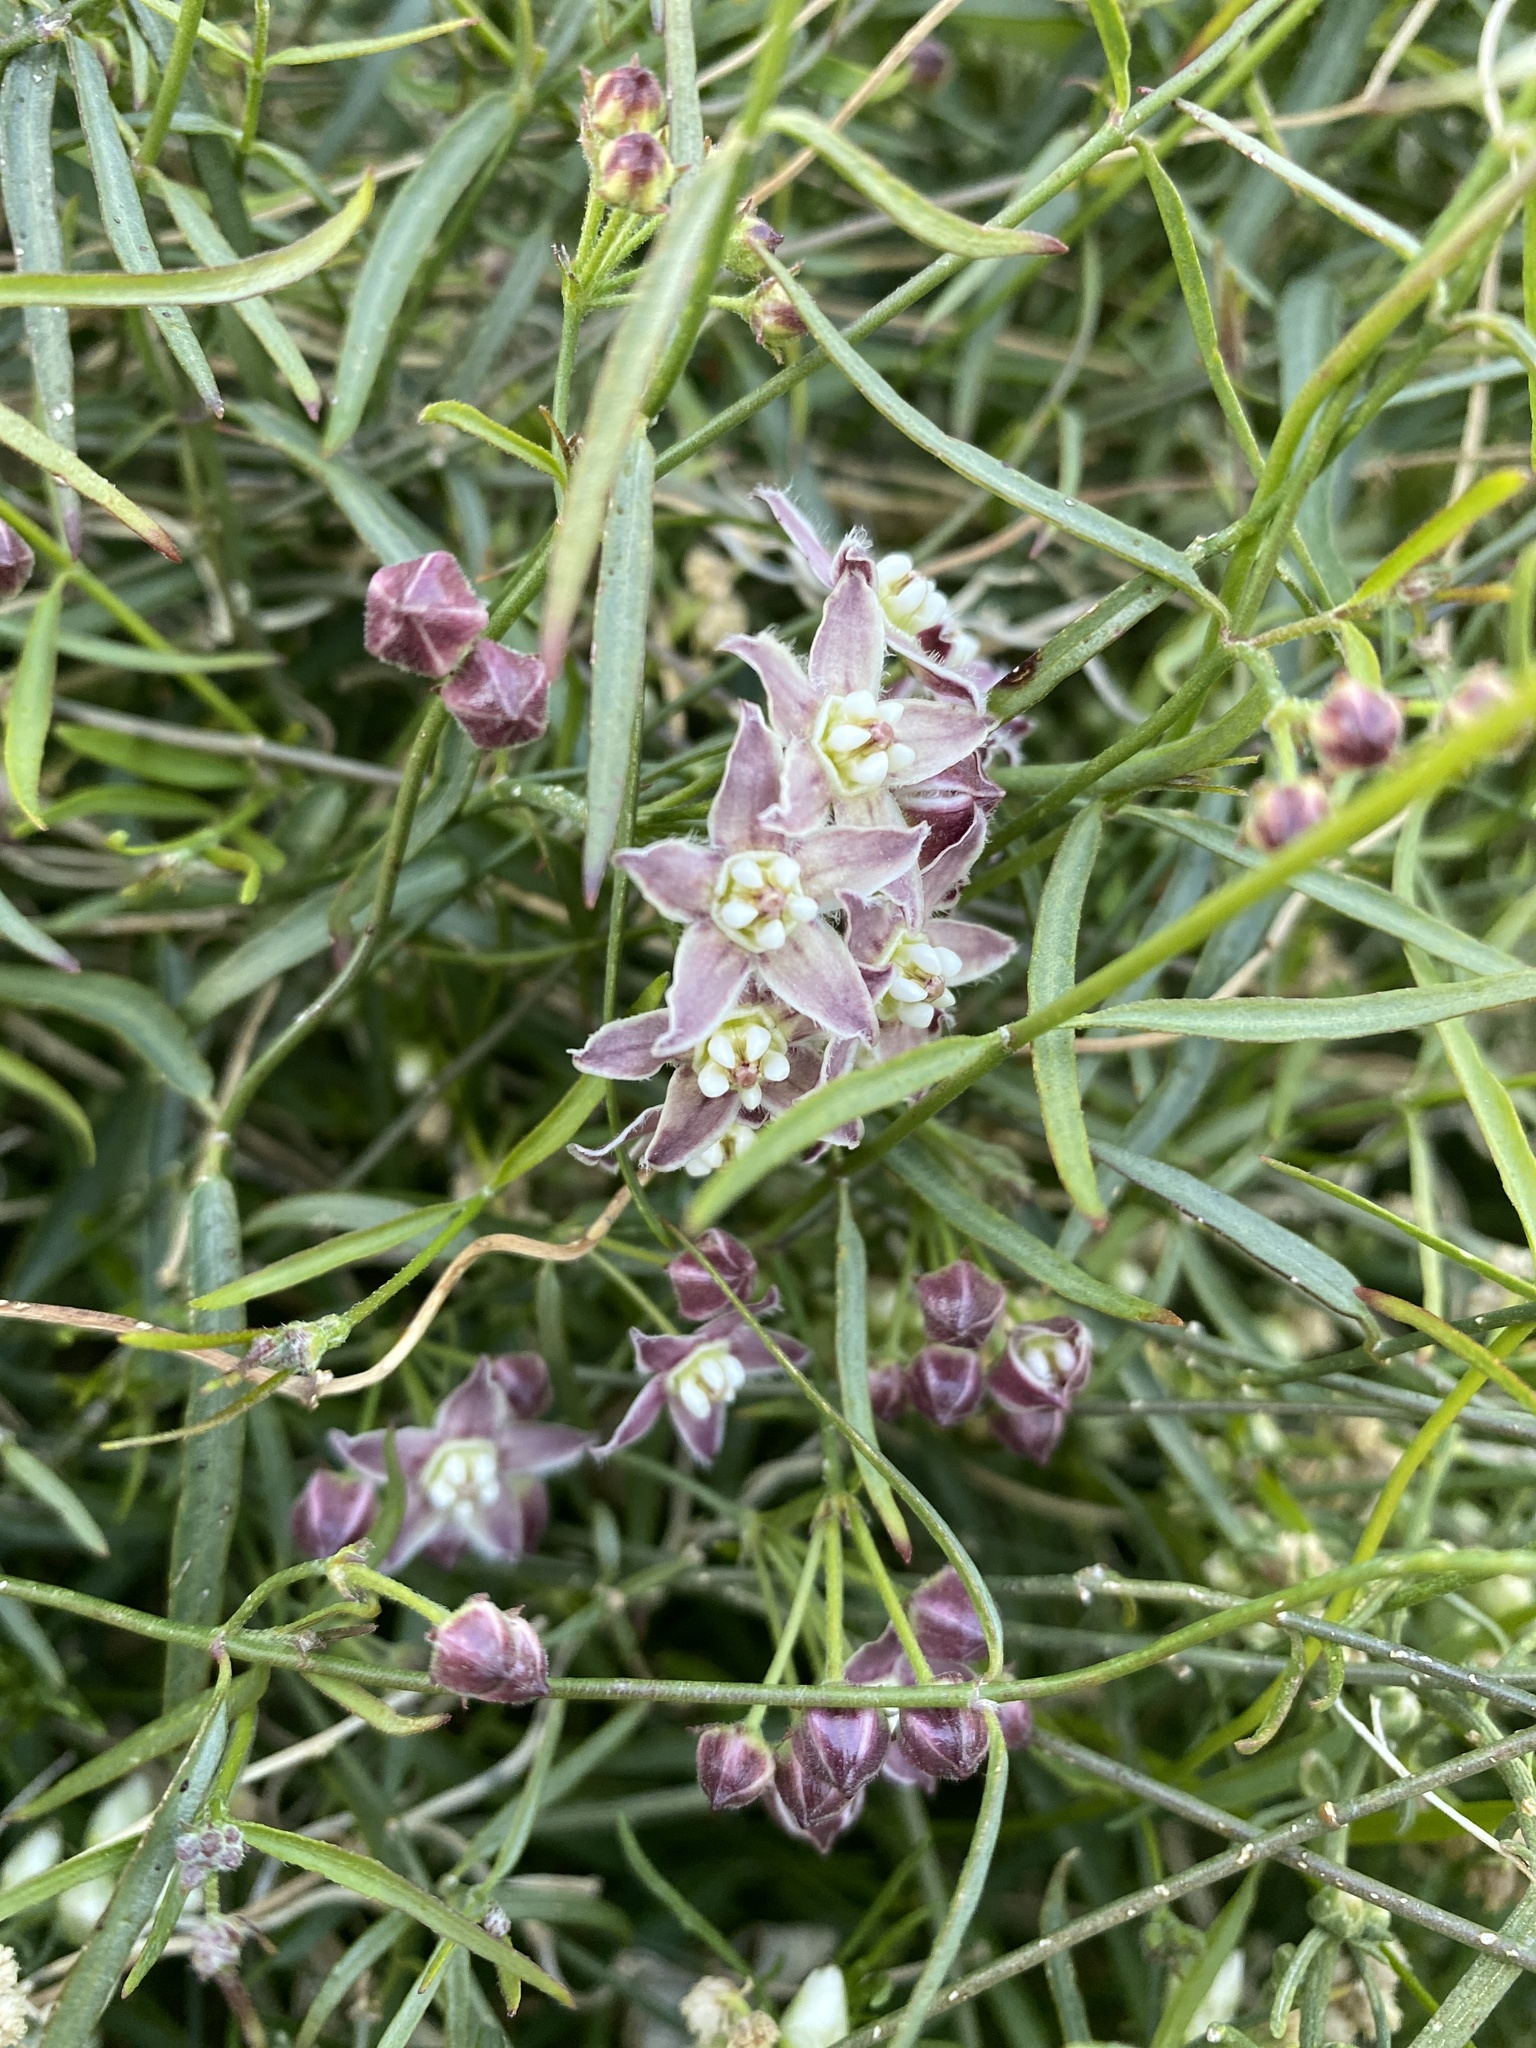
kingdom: Plantae
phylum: Tracheophyta
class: Magnoliopsida
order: Gentianales
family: Apocynaceae
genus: Funastrum
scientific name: Funastrum heterophyllum
